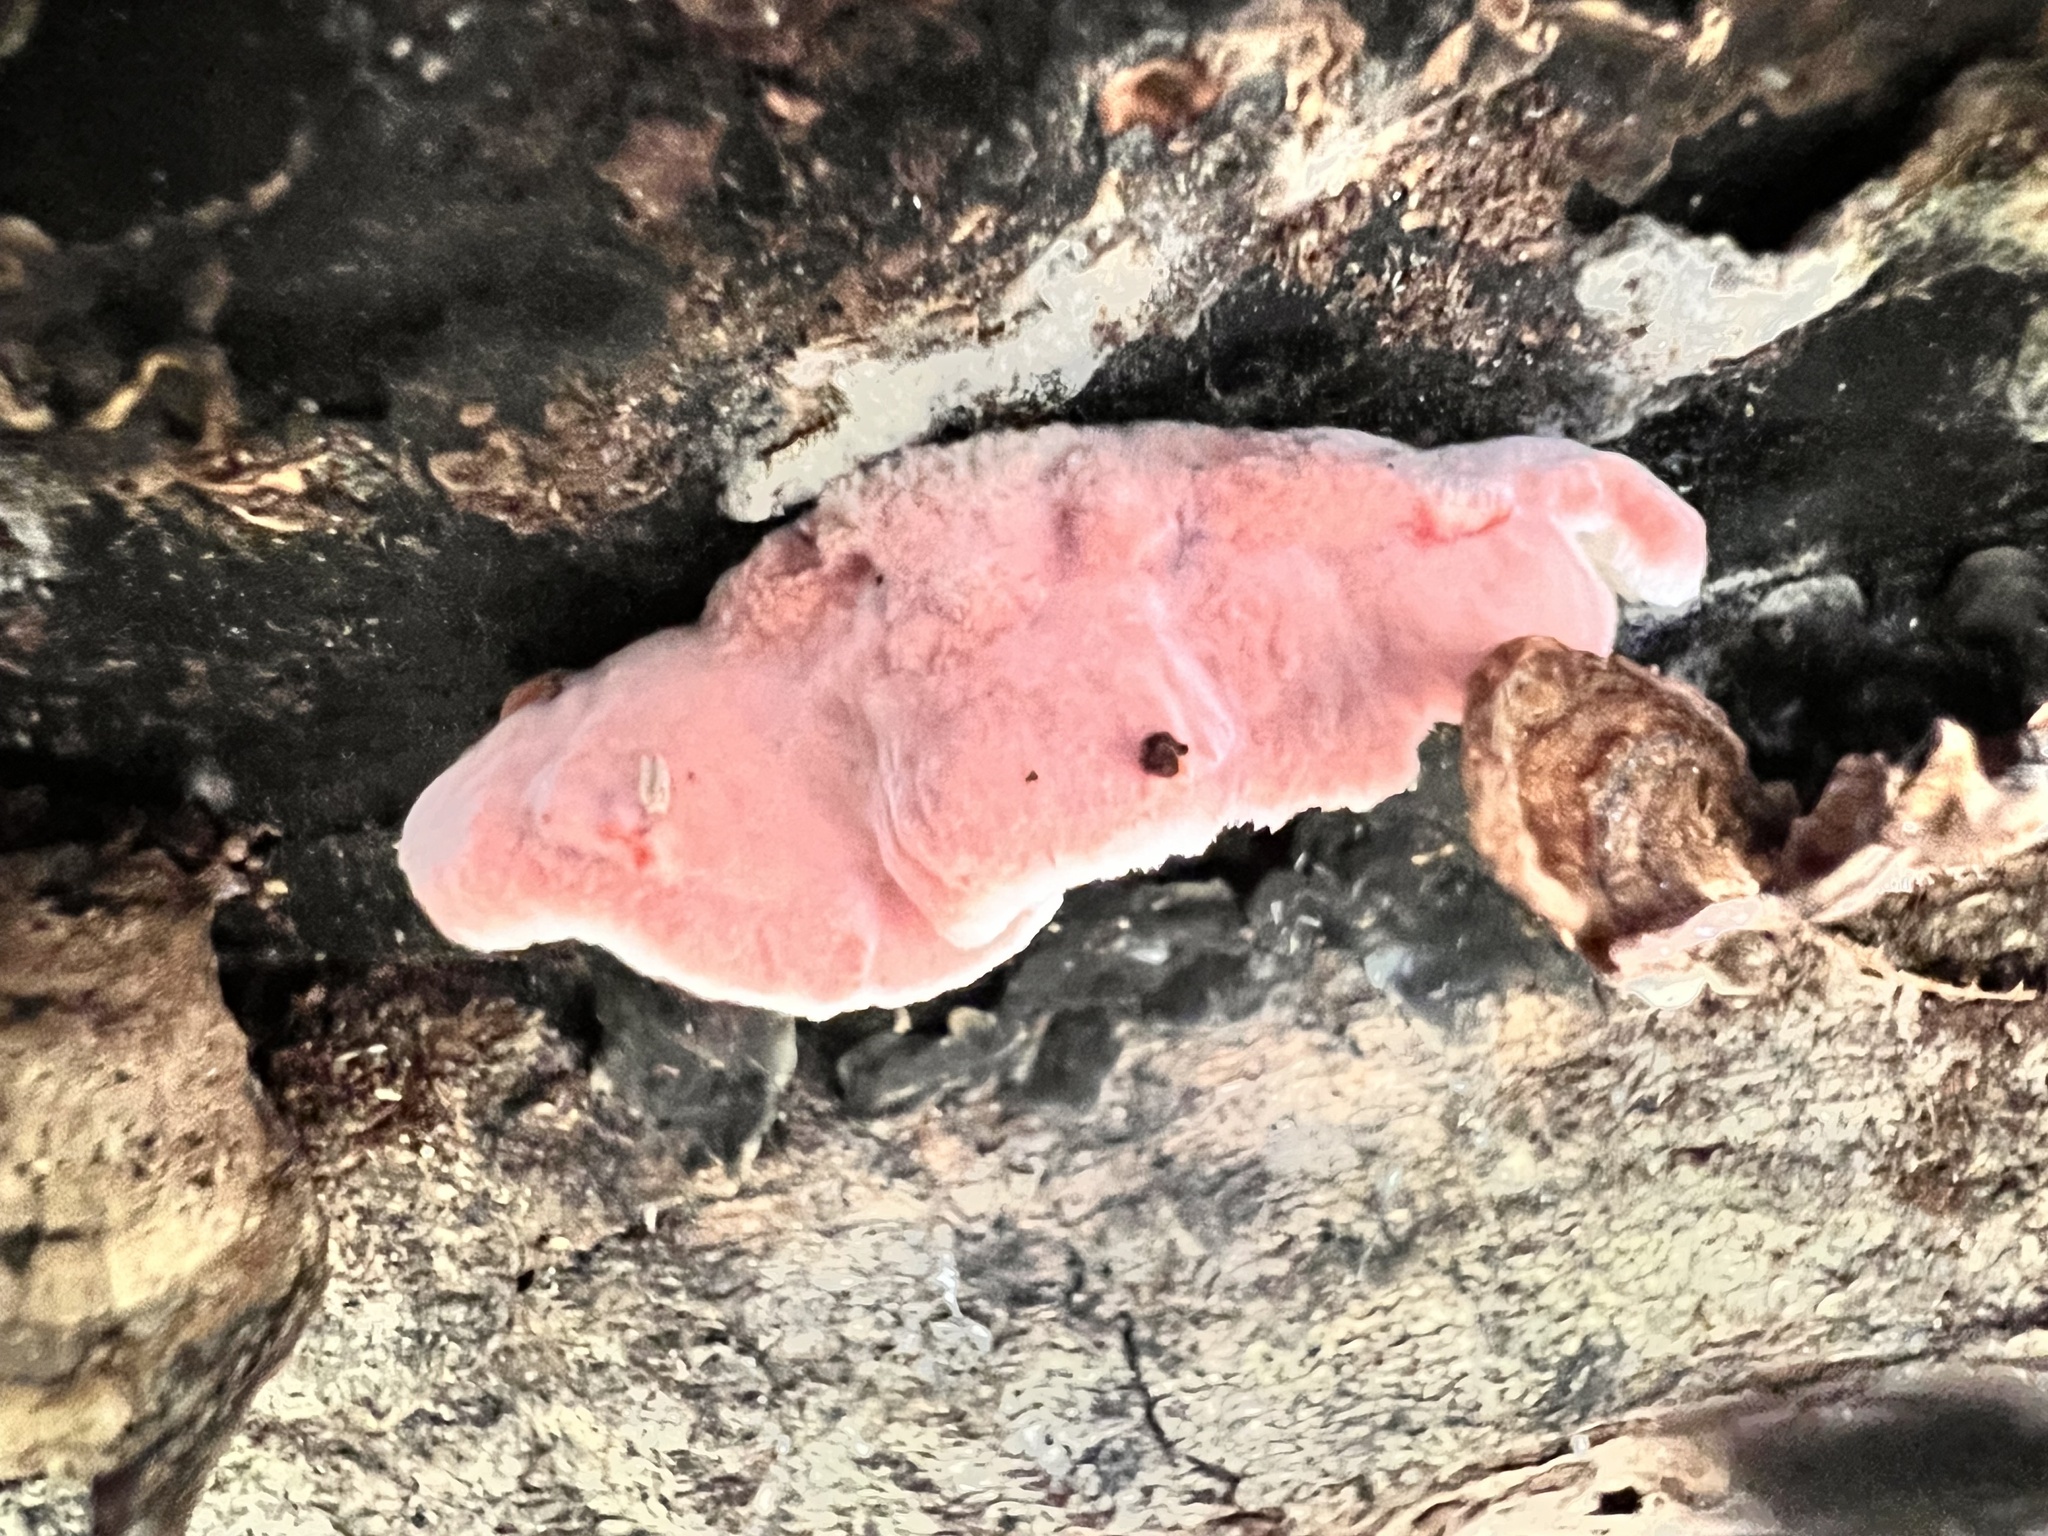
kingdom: Fungi
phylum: Basidiomycota
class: Agaricomycetes
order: Polyporales
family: Irpicaceae
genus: Byssomerulius
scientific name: Byssomerulius incarnatus
